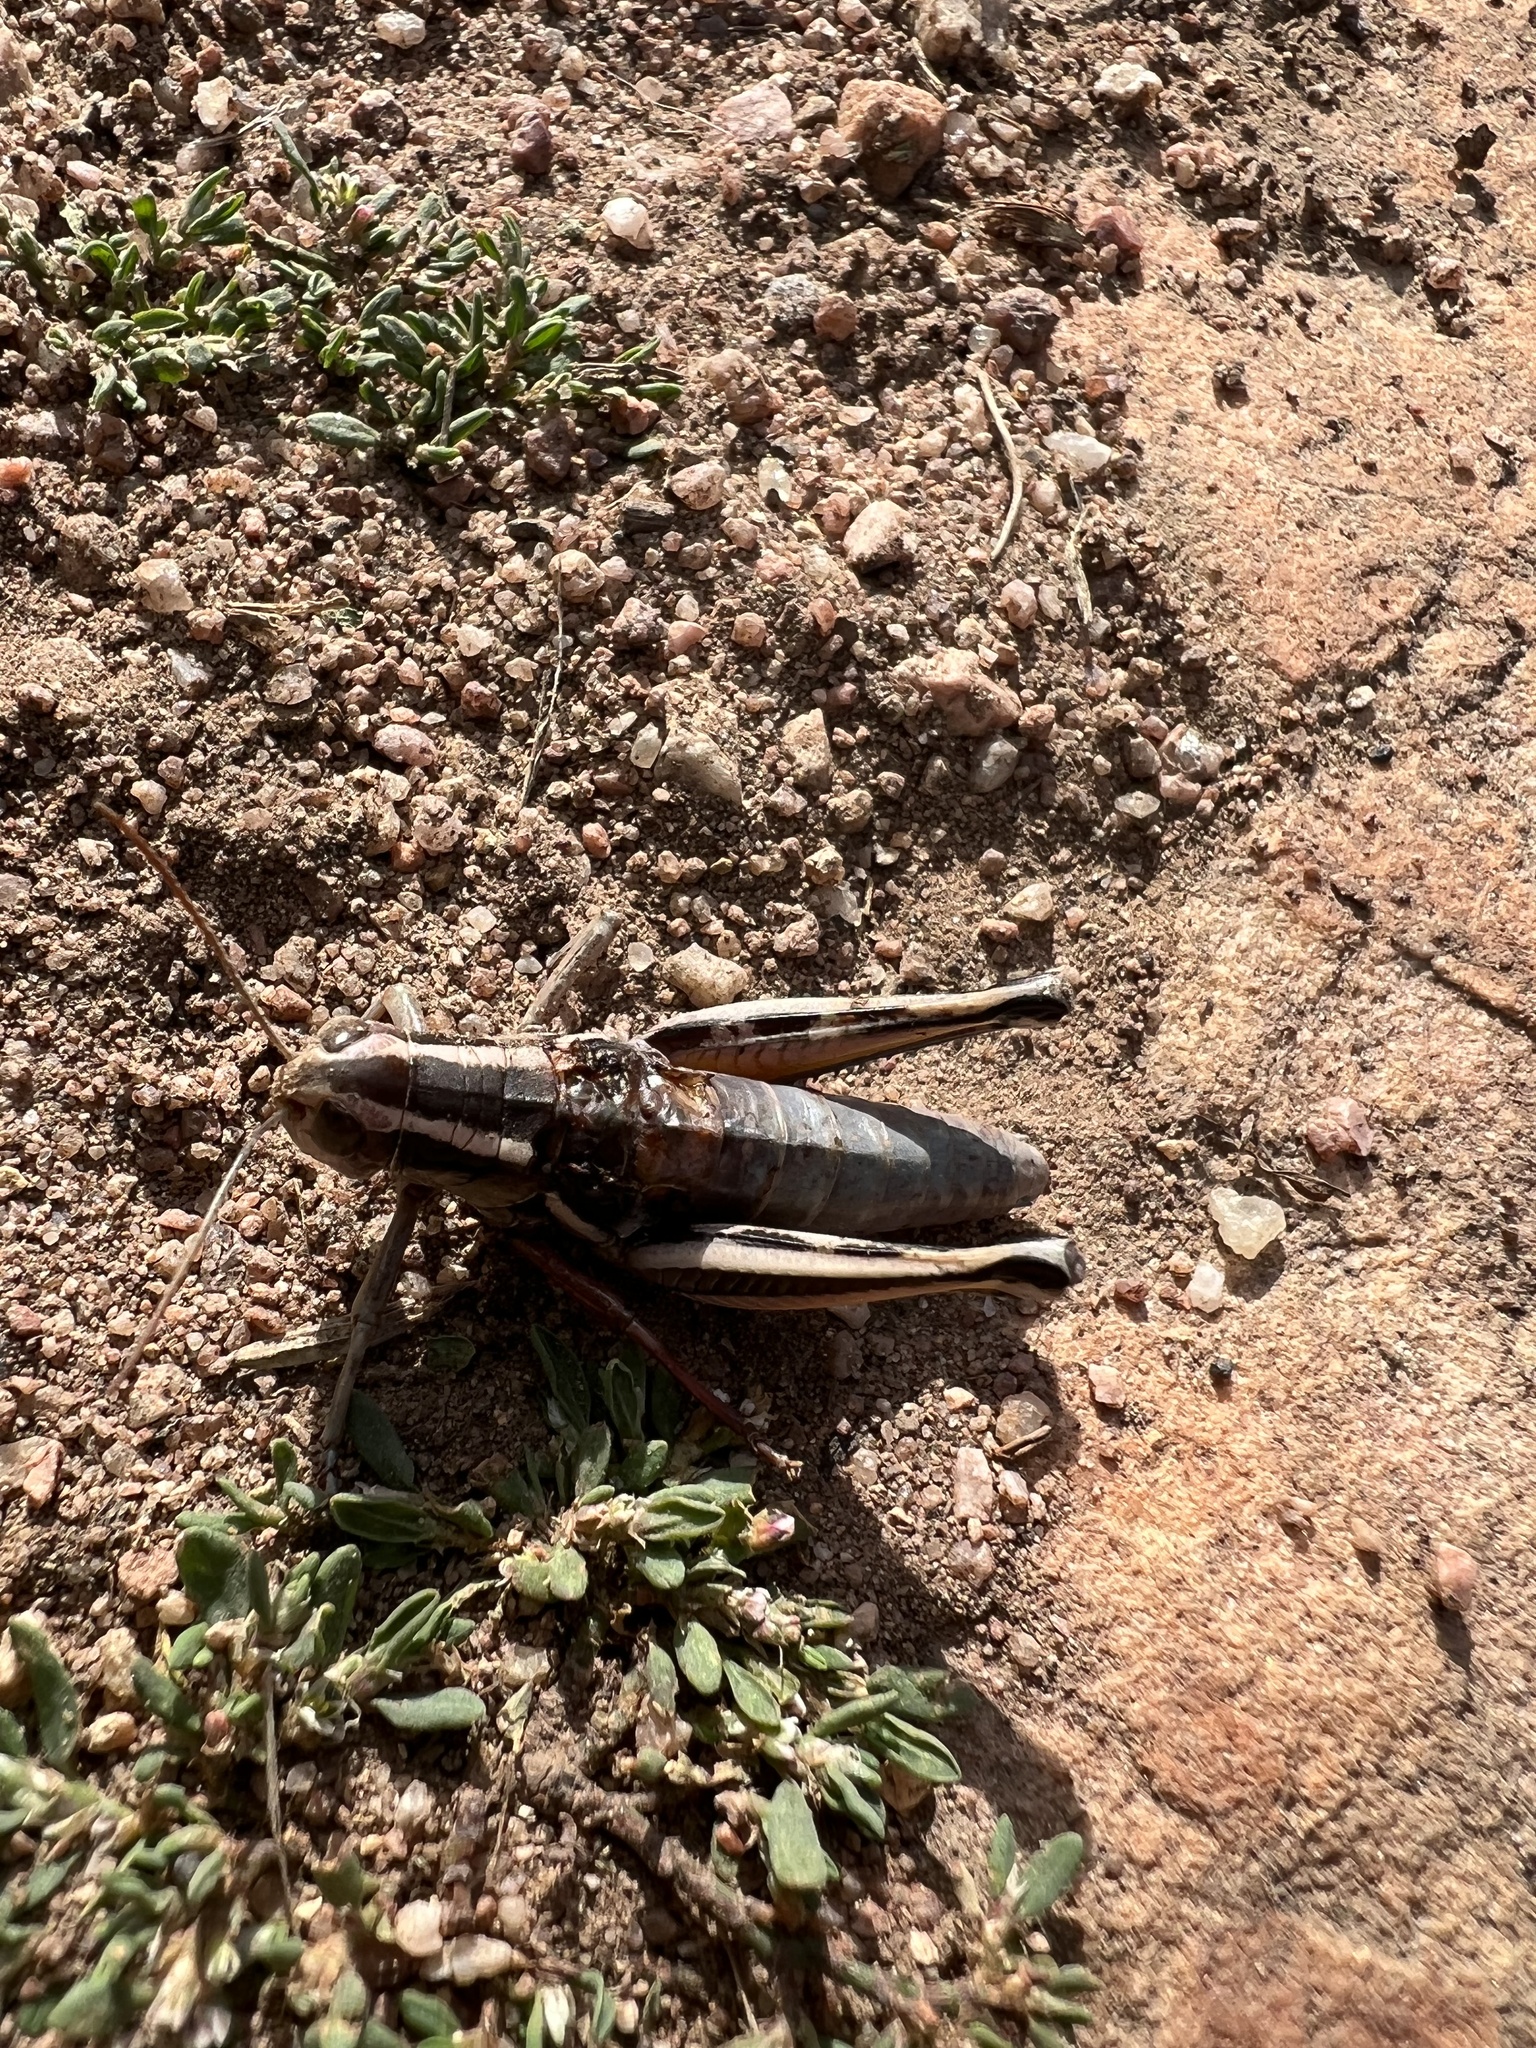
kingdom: Animalia
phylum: Arthropoda
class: Insecta
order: Orthoptera
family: Acrididae
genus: Melanoplus
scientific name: Melanoplus bivittatus
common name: Two-striped grasshopper
